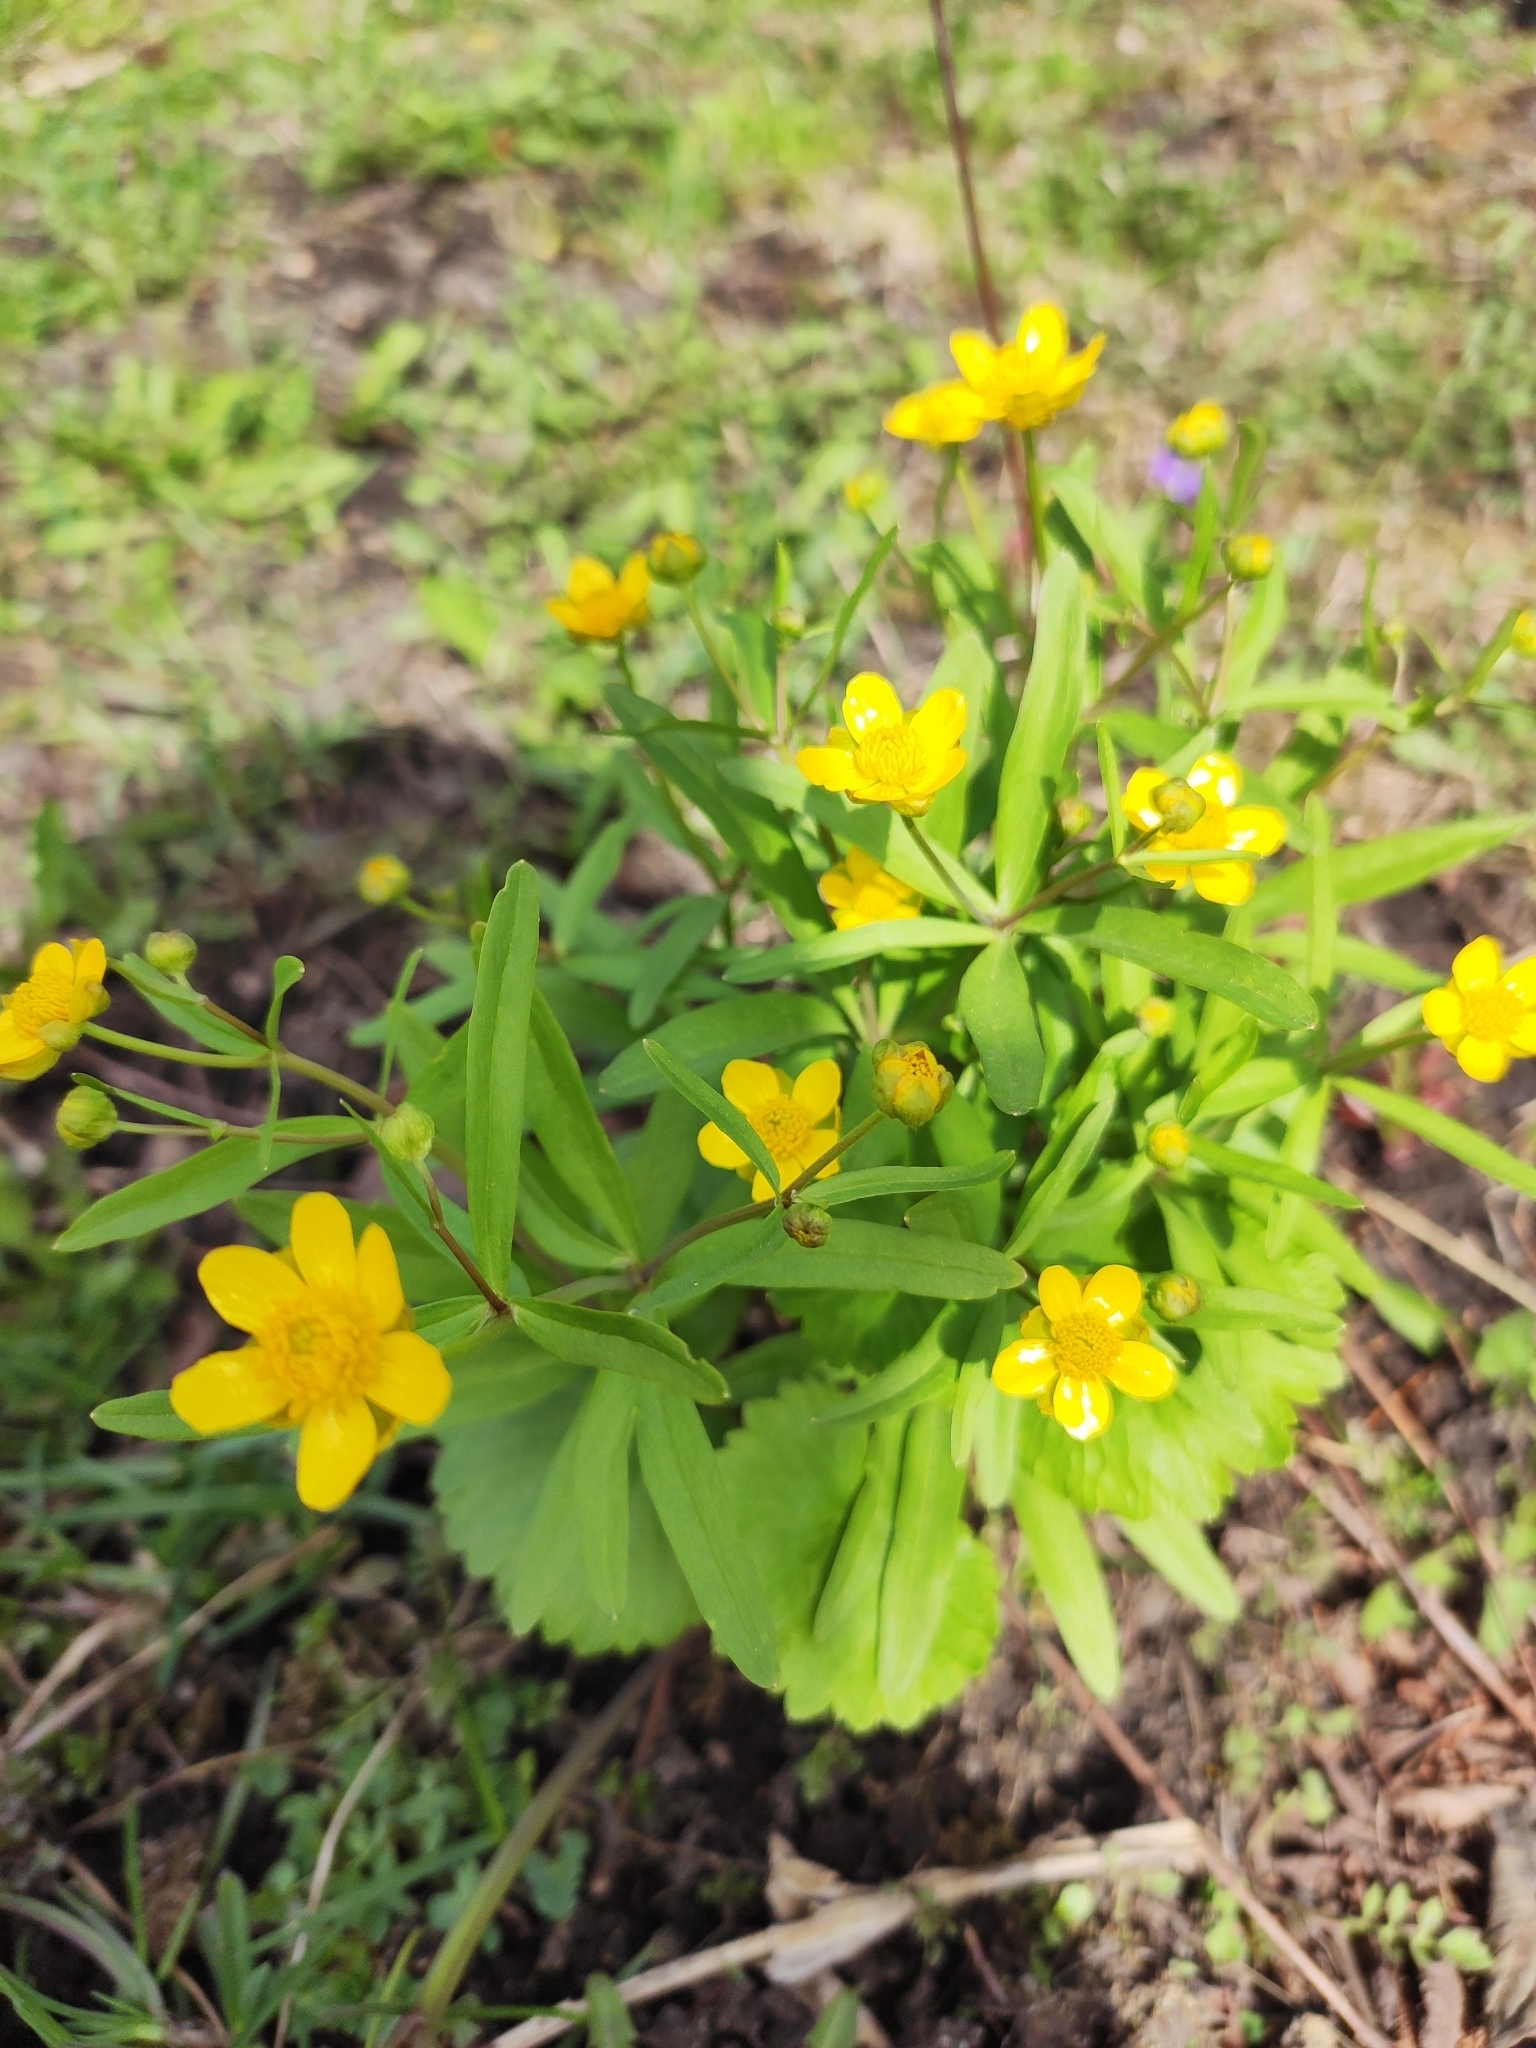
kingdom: Plantae
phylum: Tracheophyta
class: Magnoliopsida
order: Ranunculales
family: Ranunculaceae
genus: Ranunculus
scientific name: Ranunculus monophyllus
